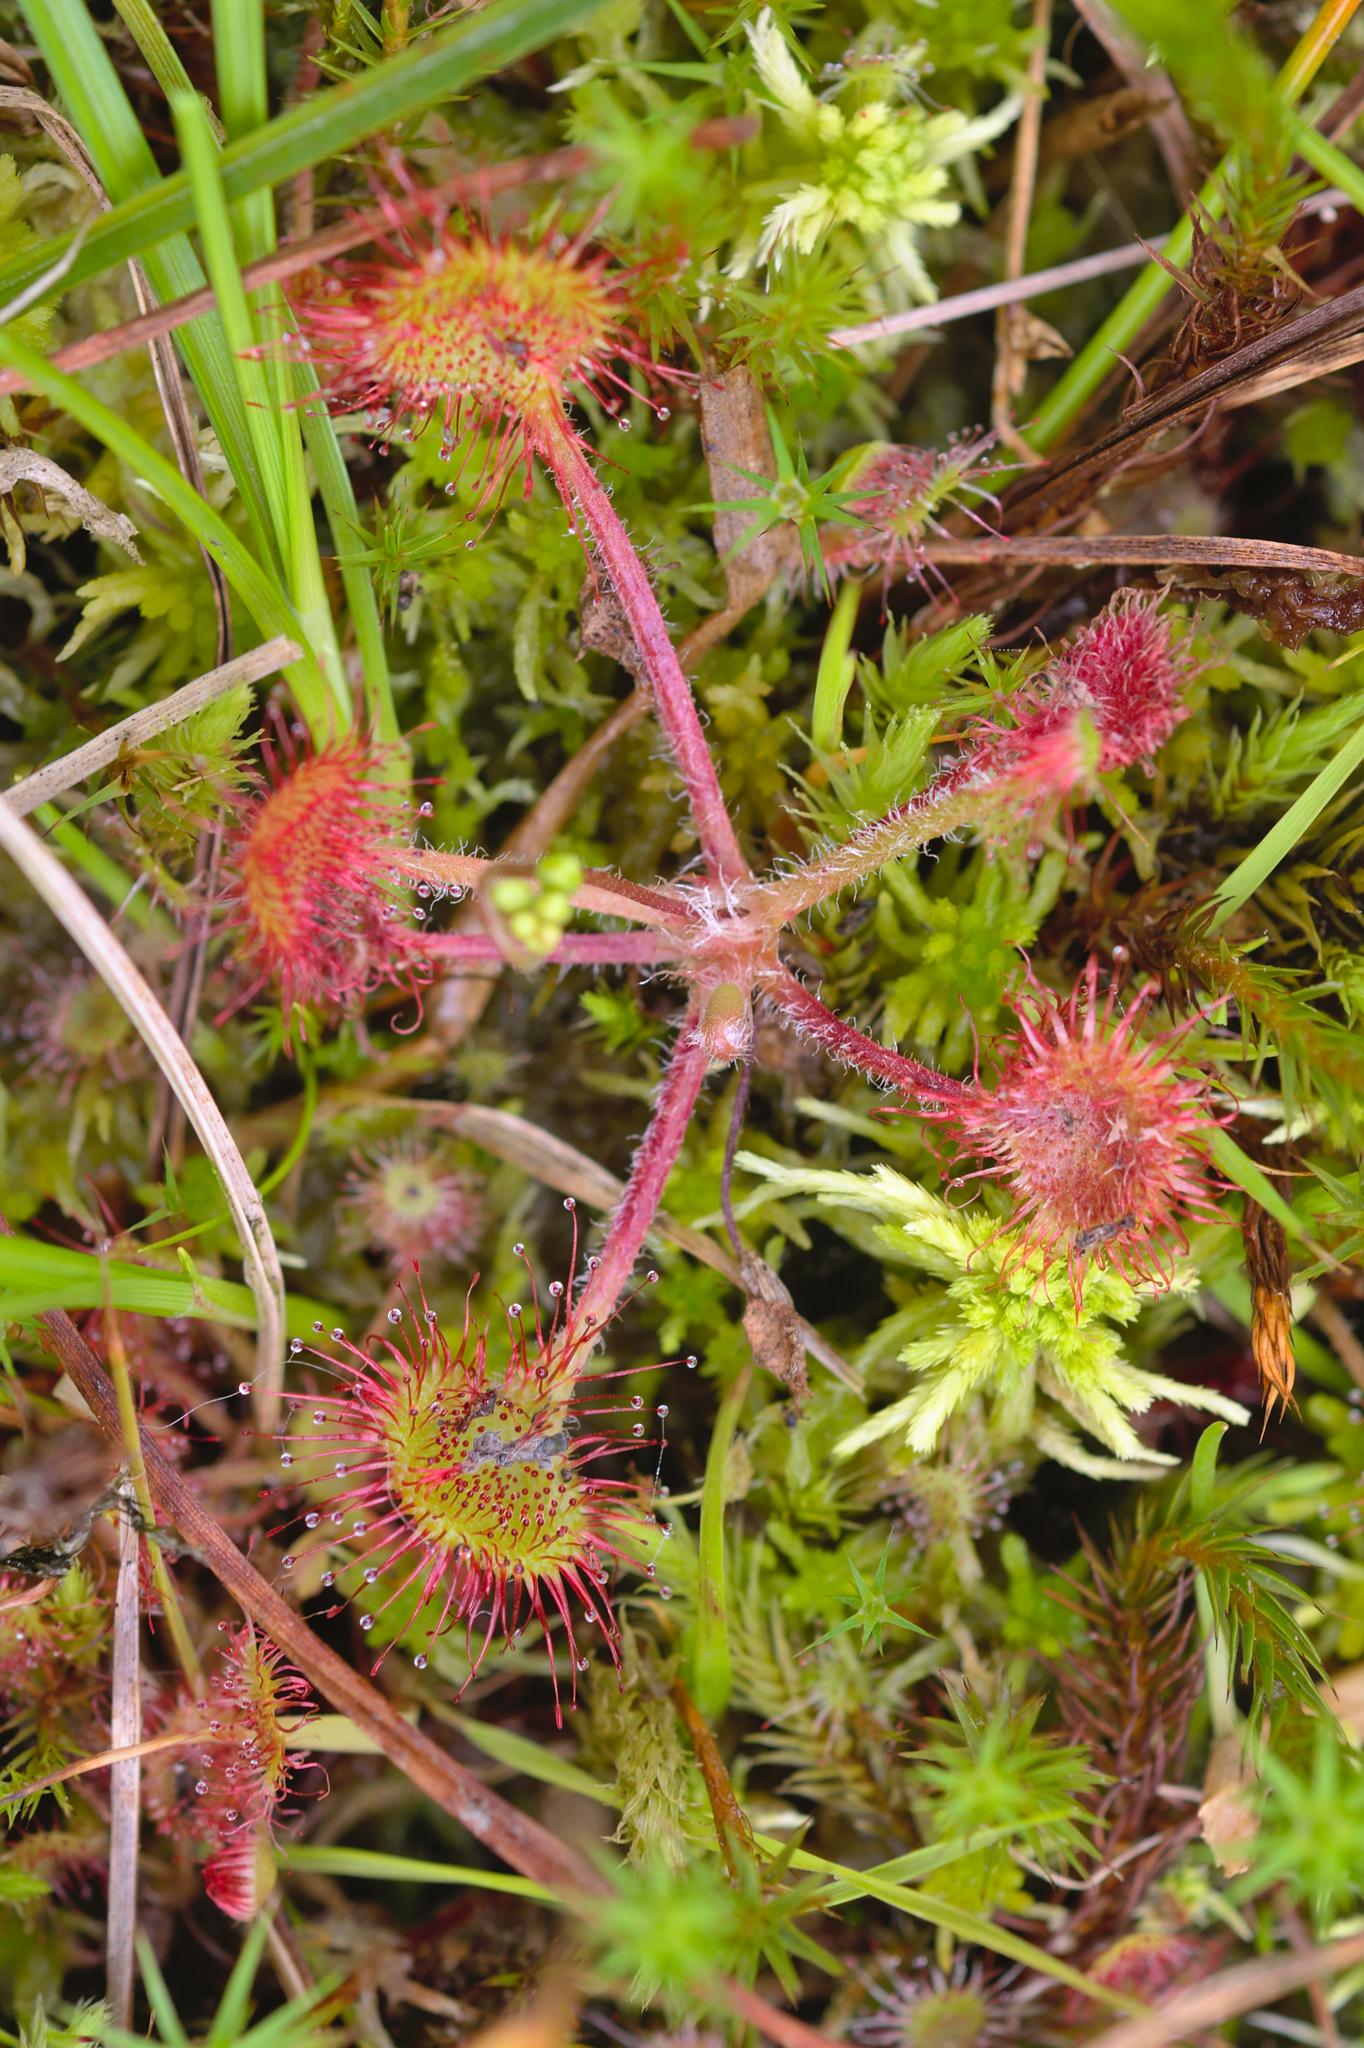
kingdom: Plantae
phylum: Tracheophyta
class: Magnoliopsida
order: Caryophyllales
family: Droseraceae
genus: Drosera
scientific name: Drosera rotundifolia
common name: Round-leaved sundew
